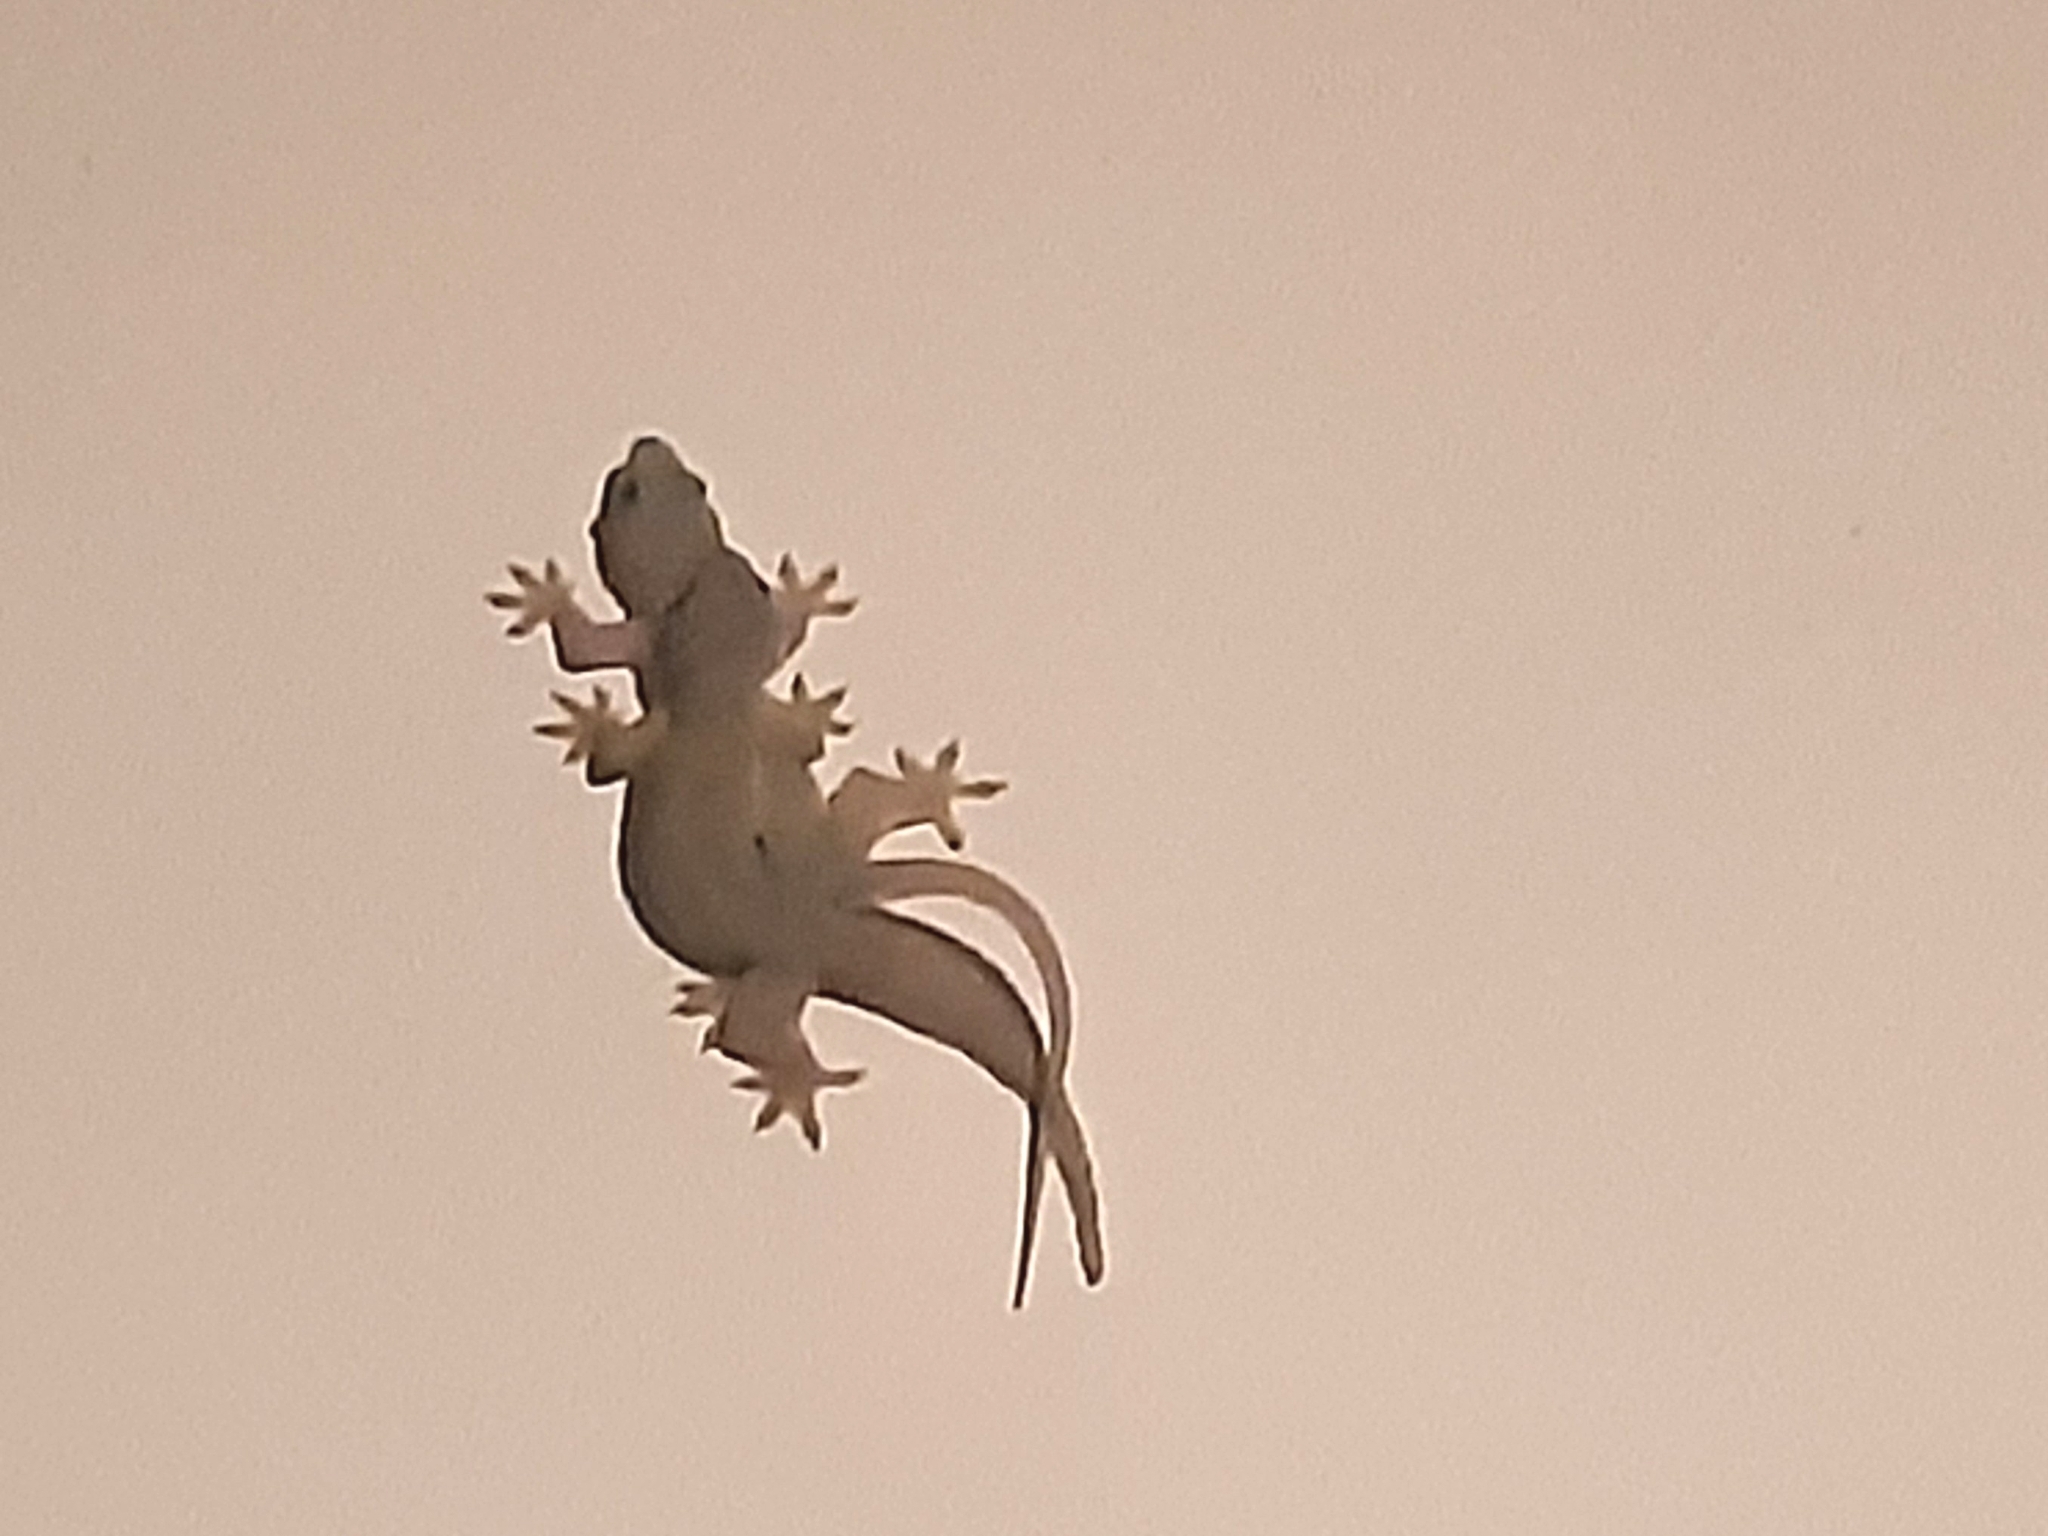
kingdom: Animalia
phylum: Chordata
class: Squamata
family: Gekkonidae
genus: Hemidactylus
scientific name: Hemidactylus platyurus
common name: Flat-tailed house gecko
